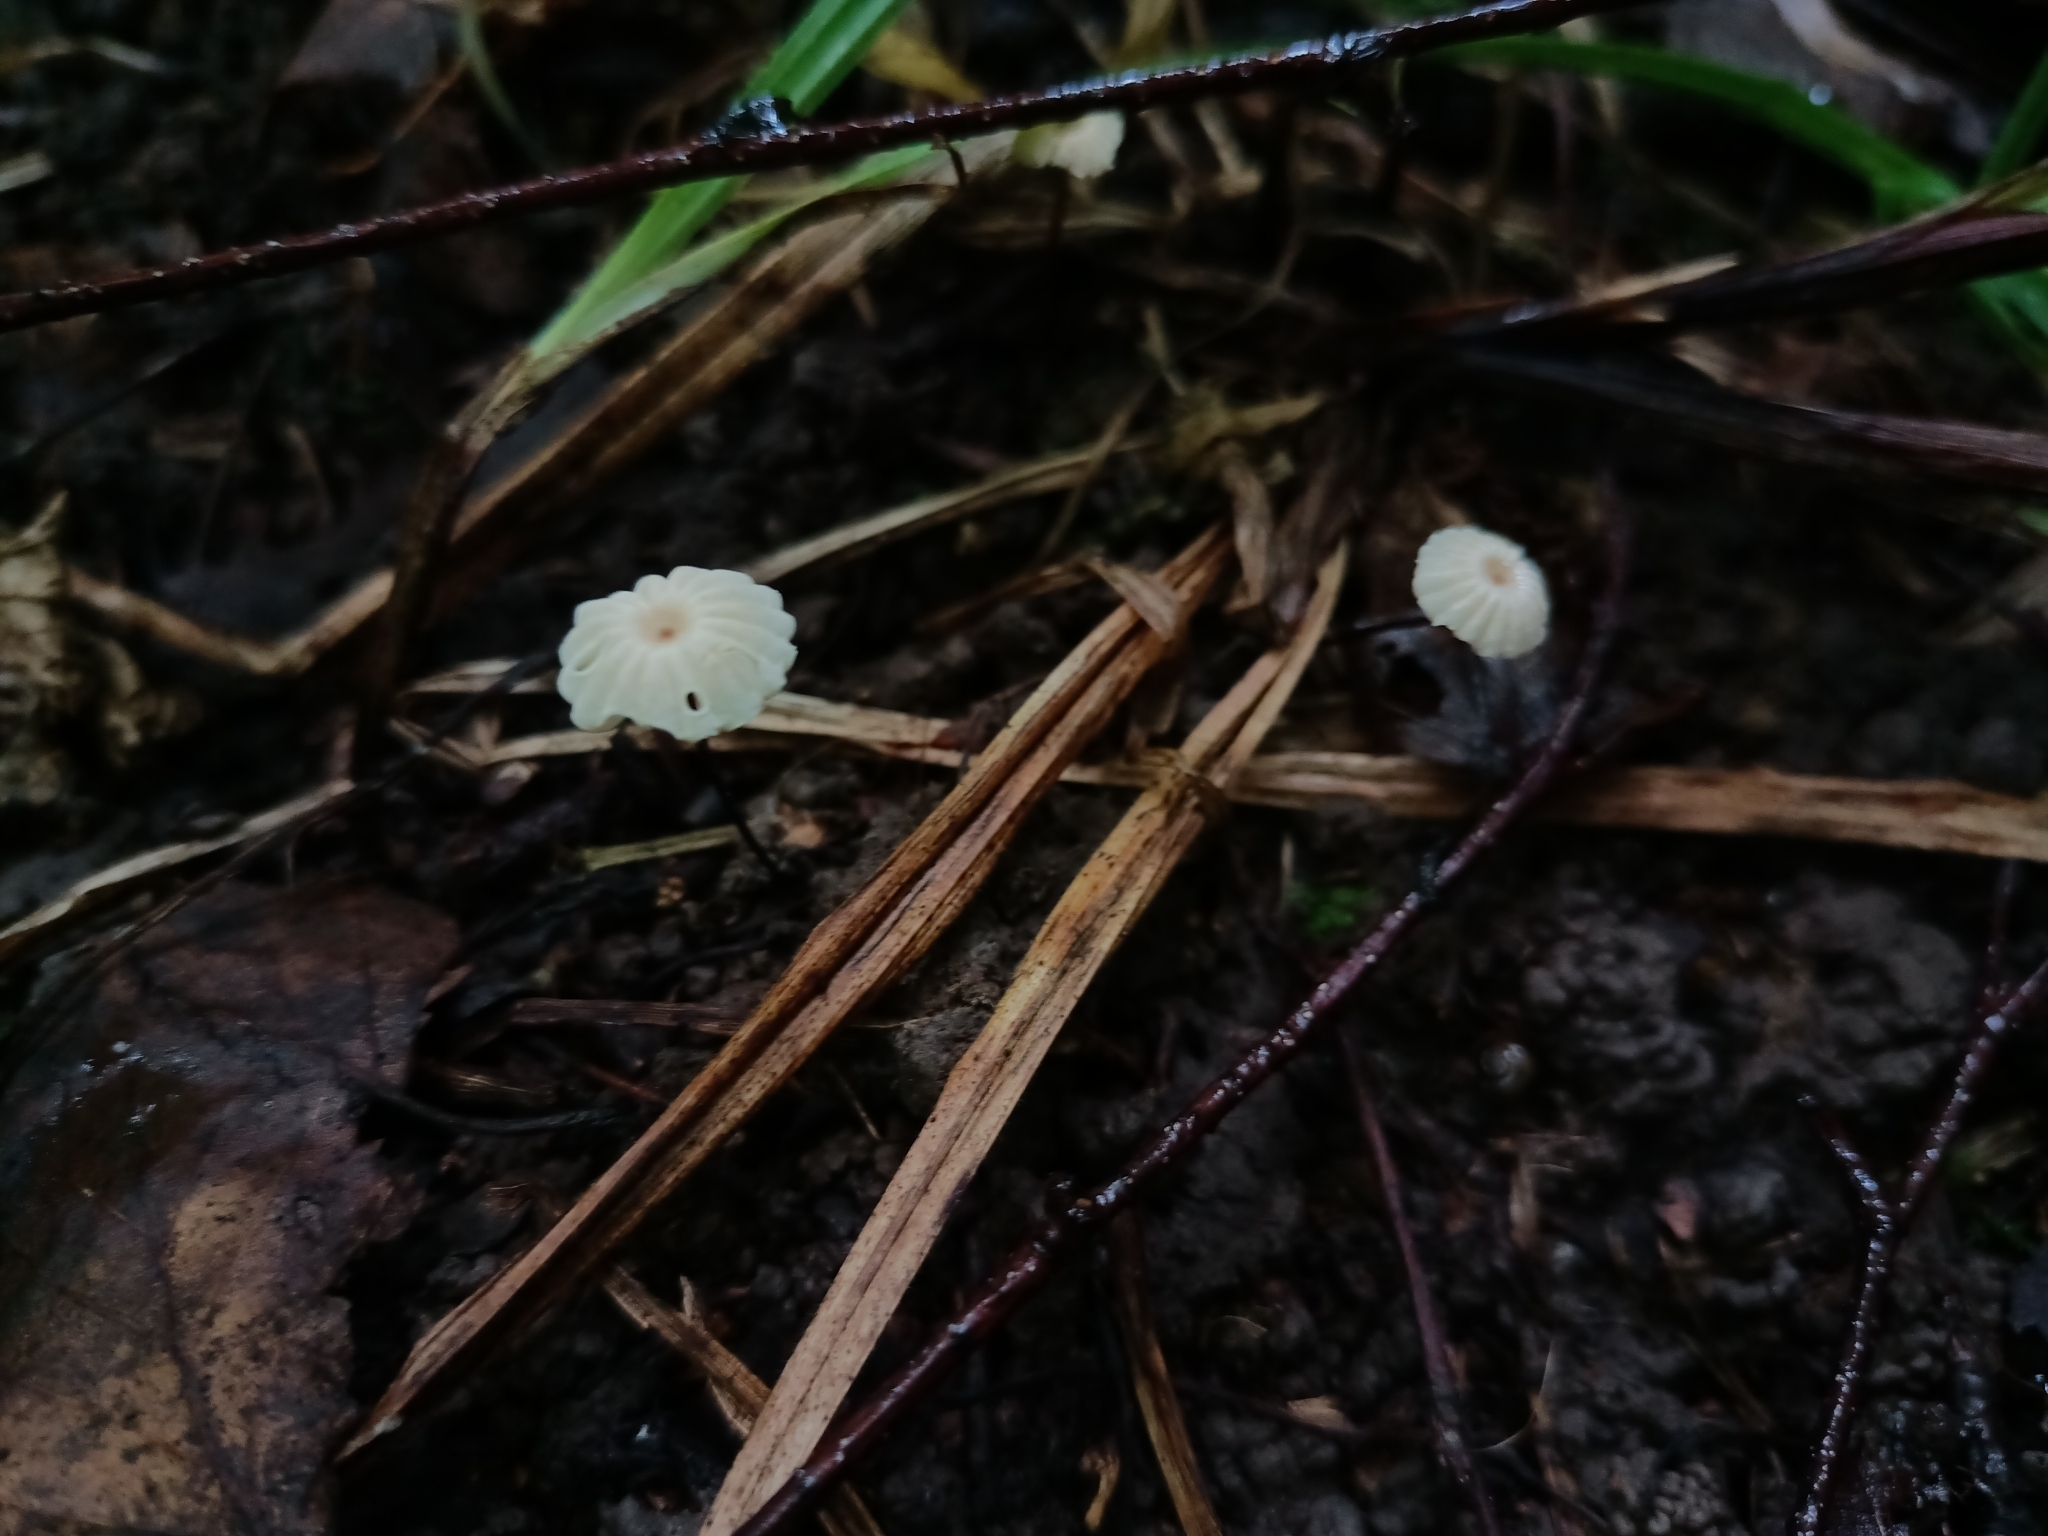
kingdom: Fungi
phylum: Basidiomycota
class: Agaricomycetes
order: Agaricales
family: Marasmiaceae
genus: Marasmius
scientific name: Marasmius rotula
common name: Collared parachute
